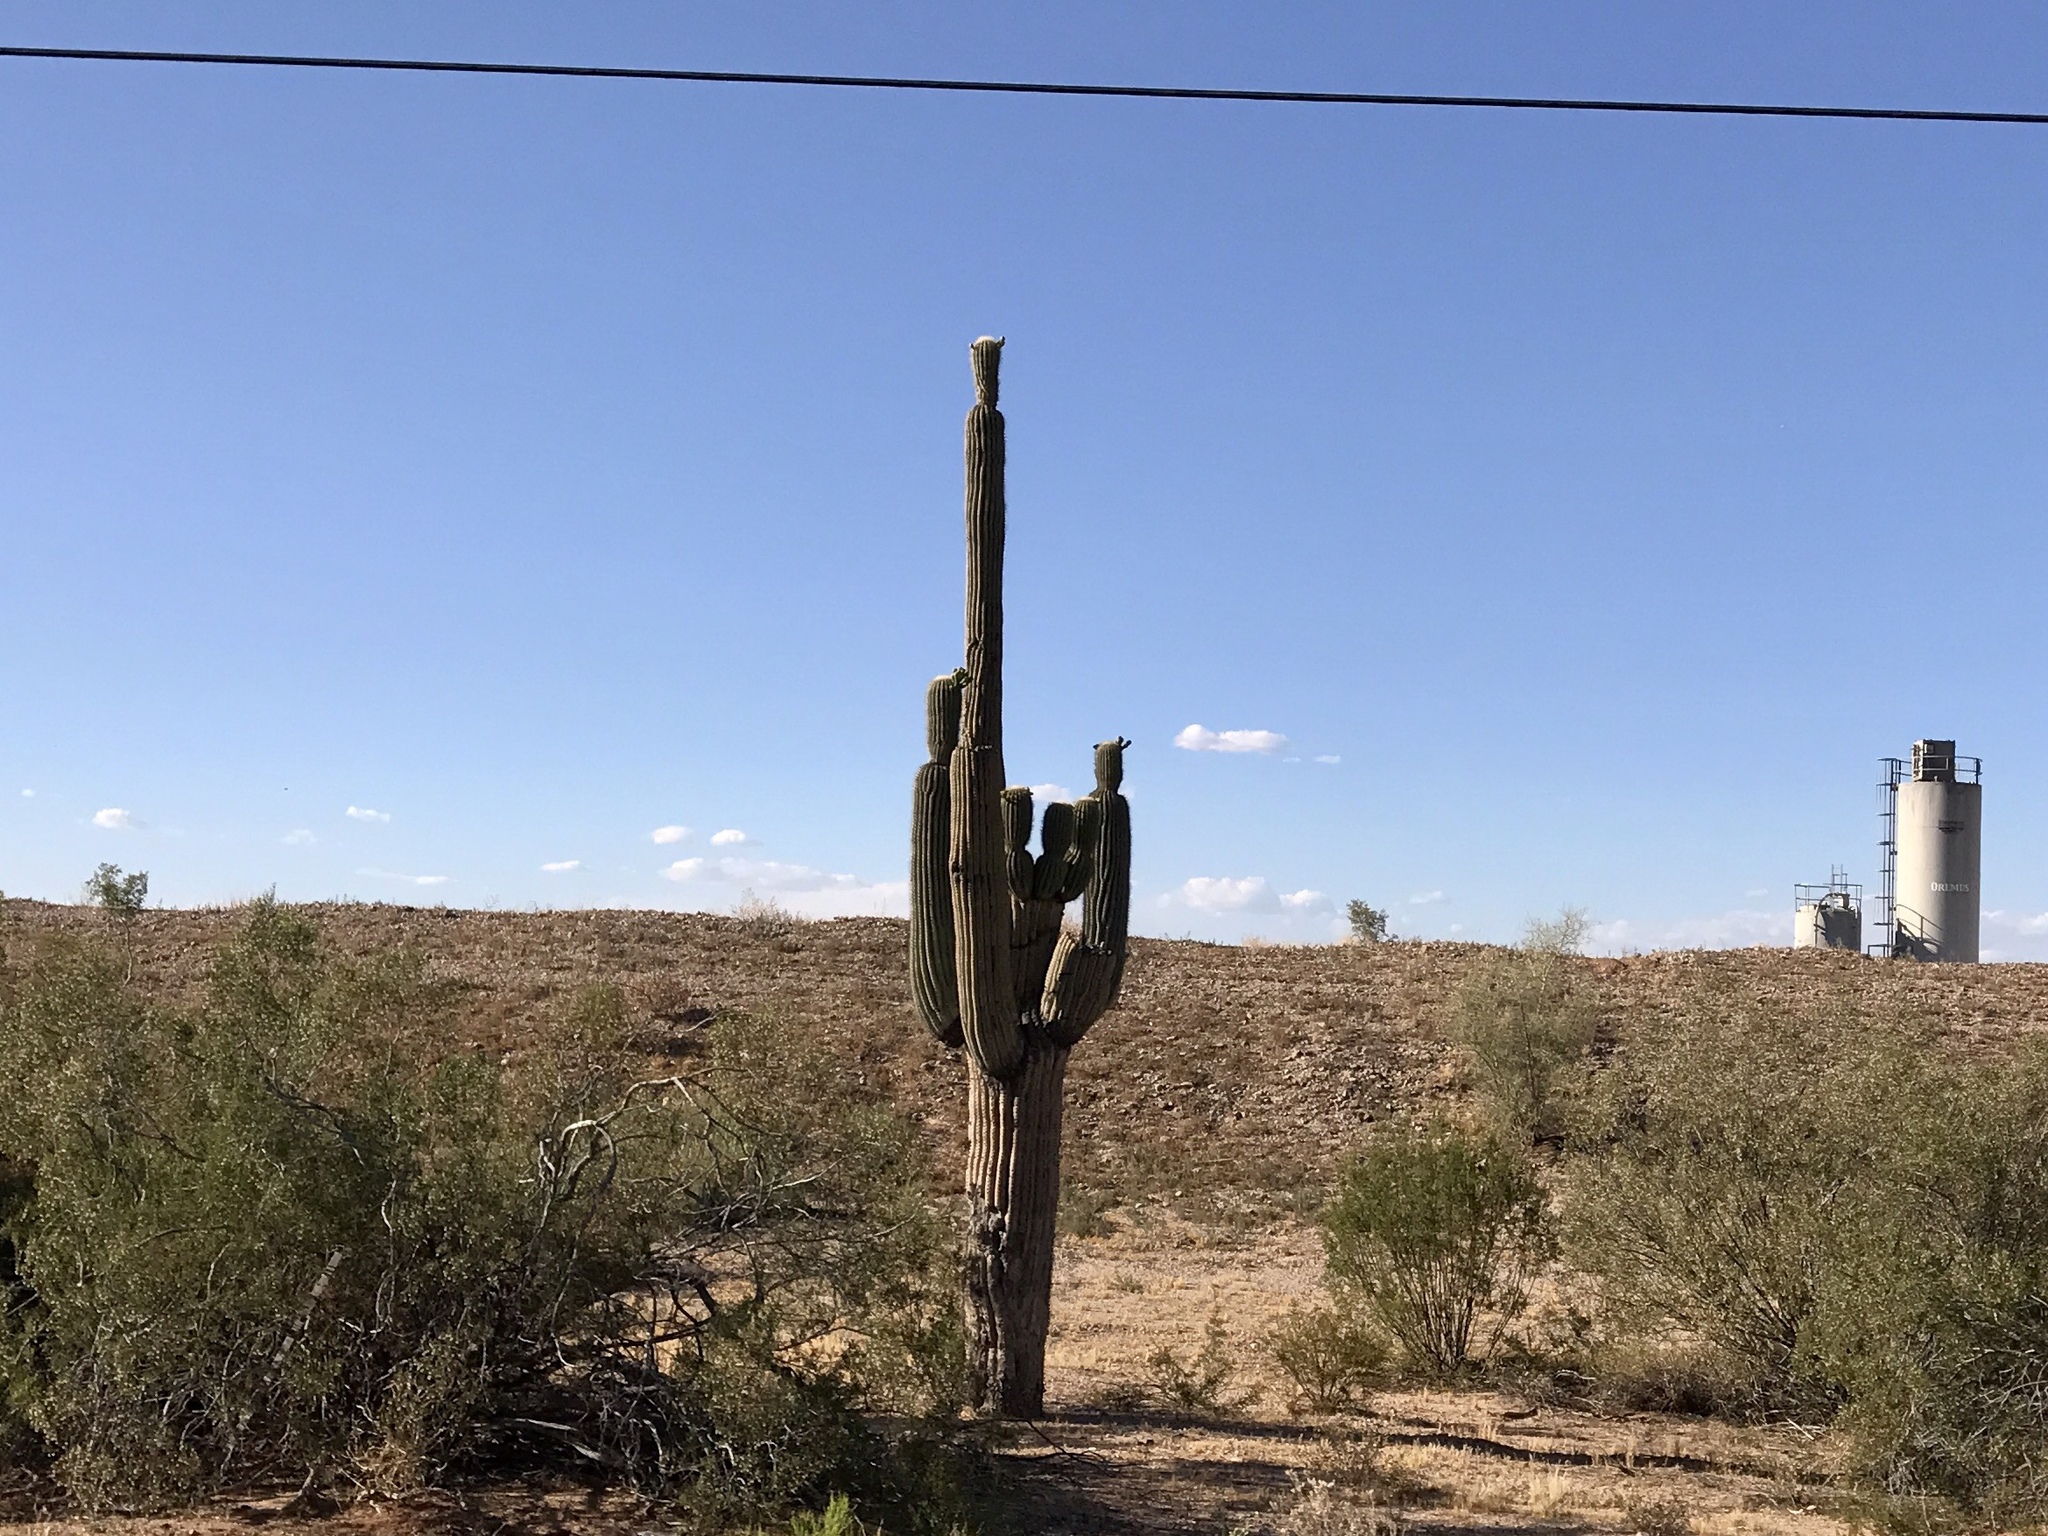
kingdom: Plantae
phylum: Tracheophyta
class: Magnoliopsida
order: Caryophyllales
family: Cactaceae
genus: Carnegiea
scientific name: Carnegiea gigantea
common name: Saguaro
